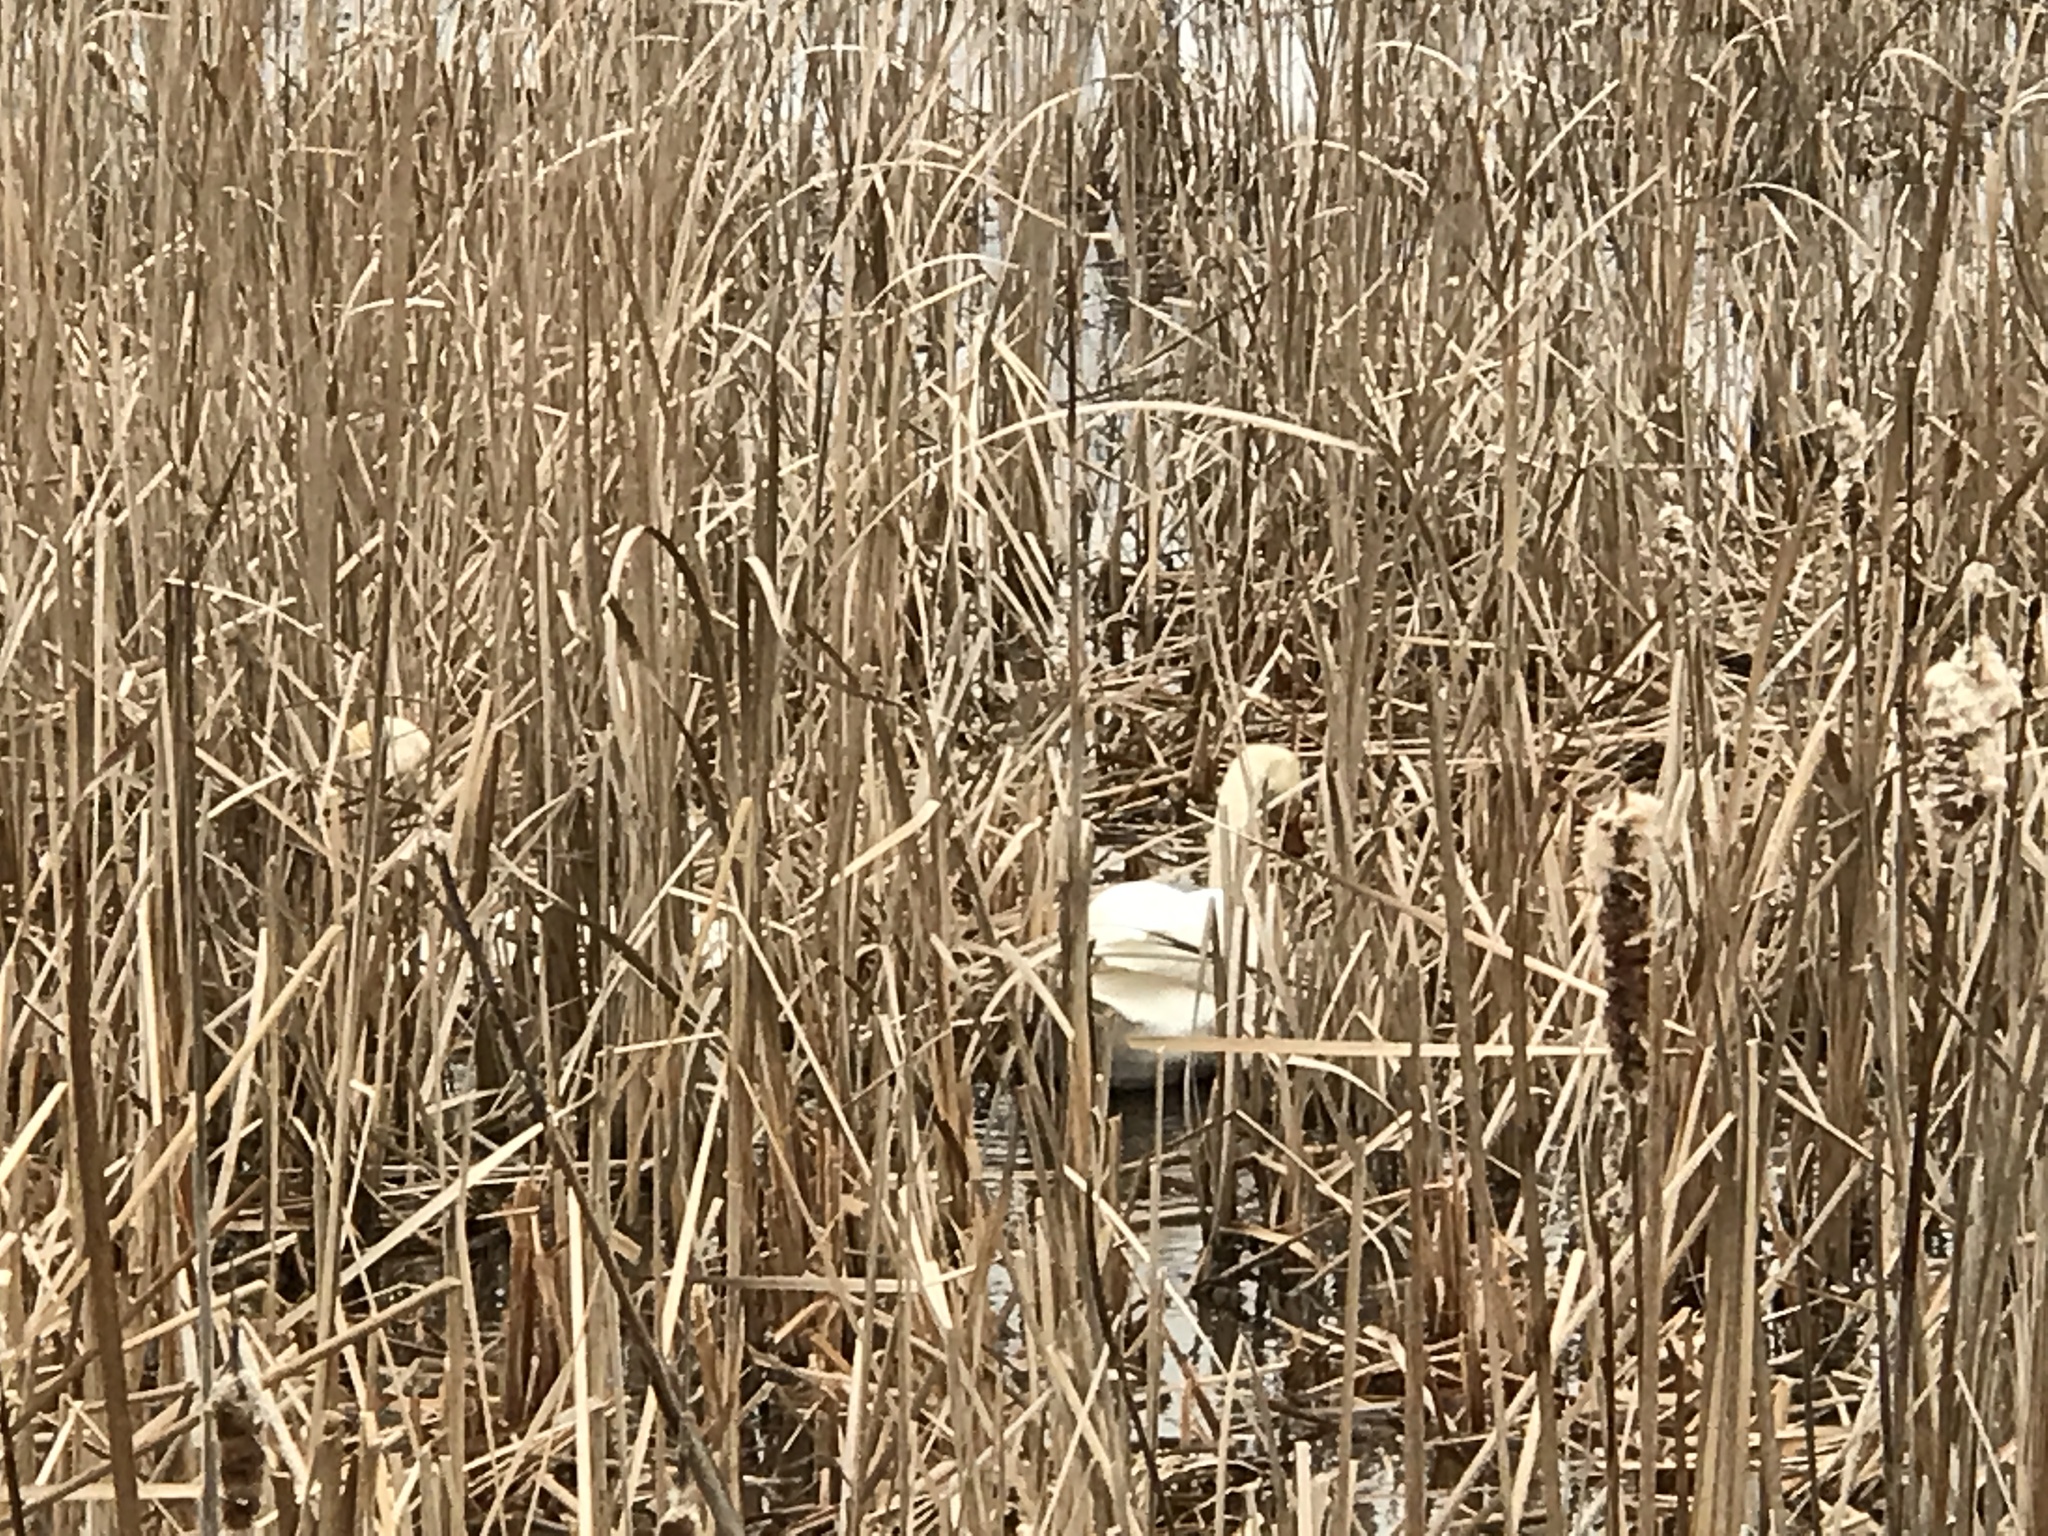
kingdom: Animalia
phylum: Chordata
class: Aves
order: Anseriformes
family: Anatidae
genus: Cygnus
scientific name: Cygnus olor
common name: Mute swan
